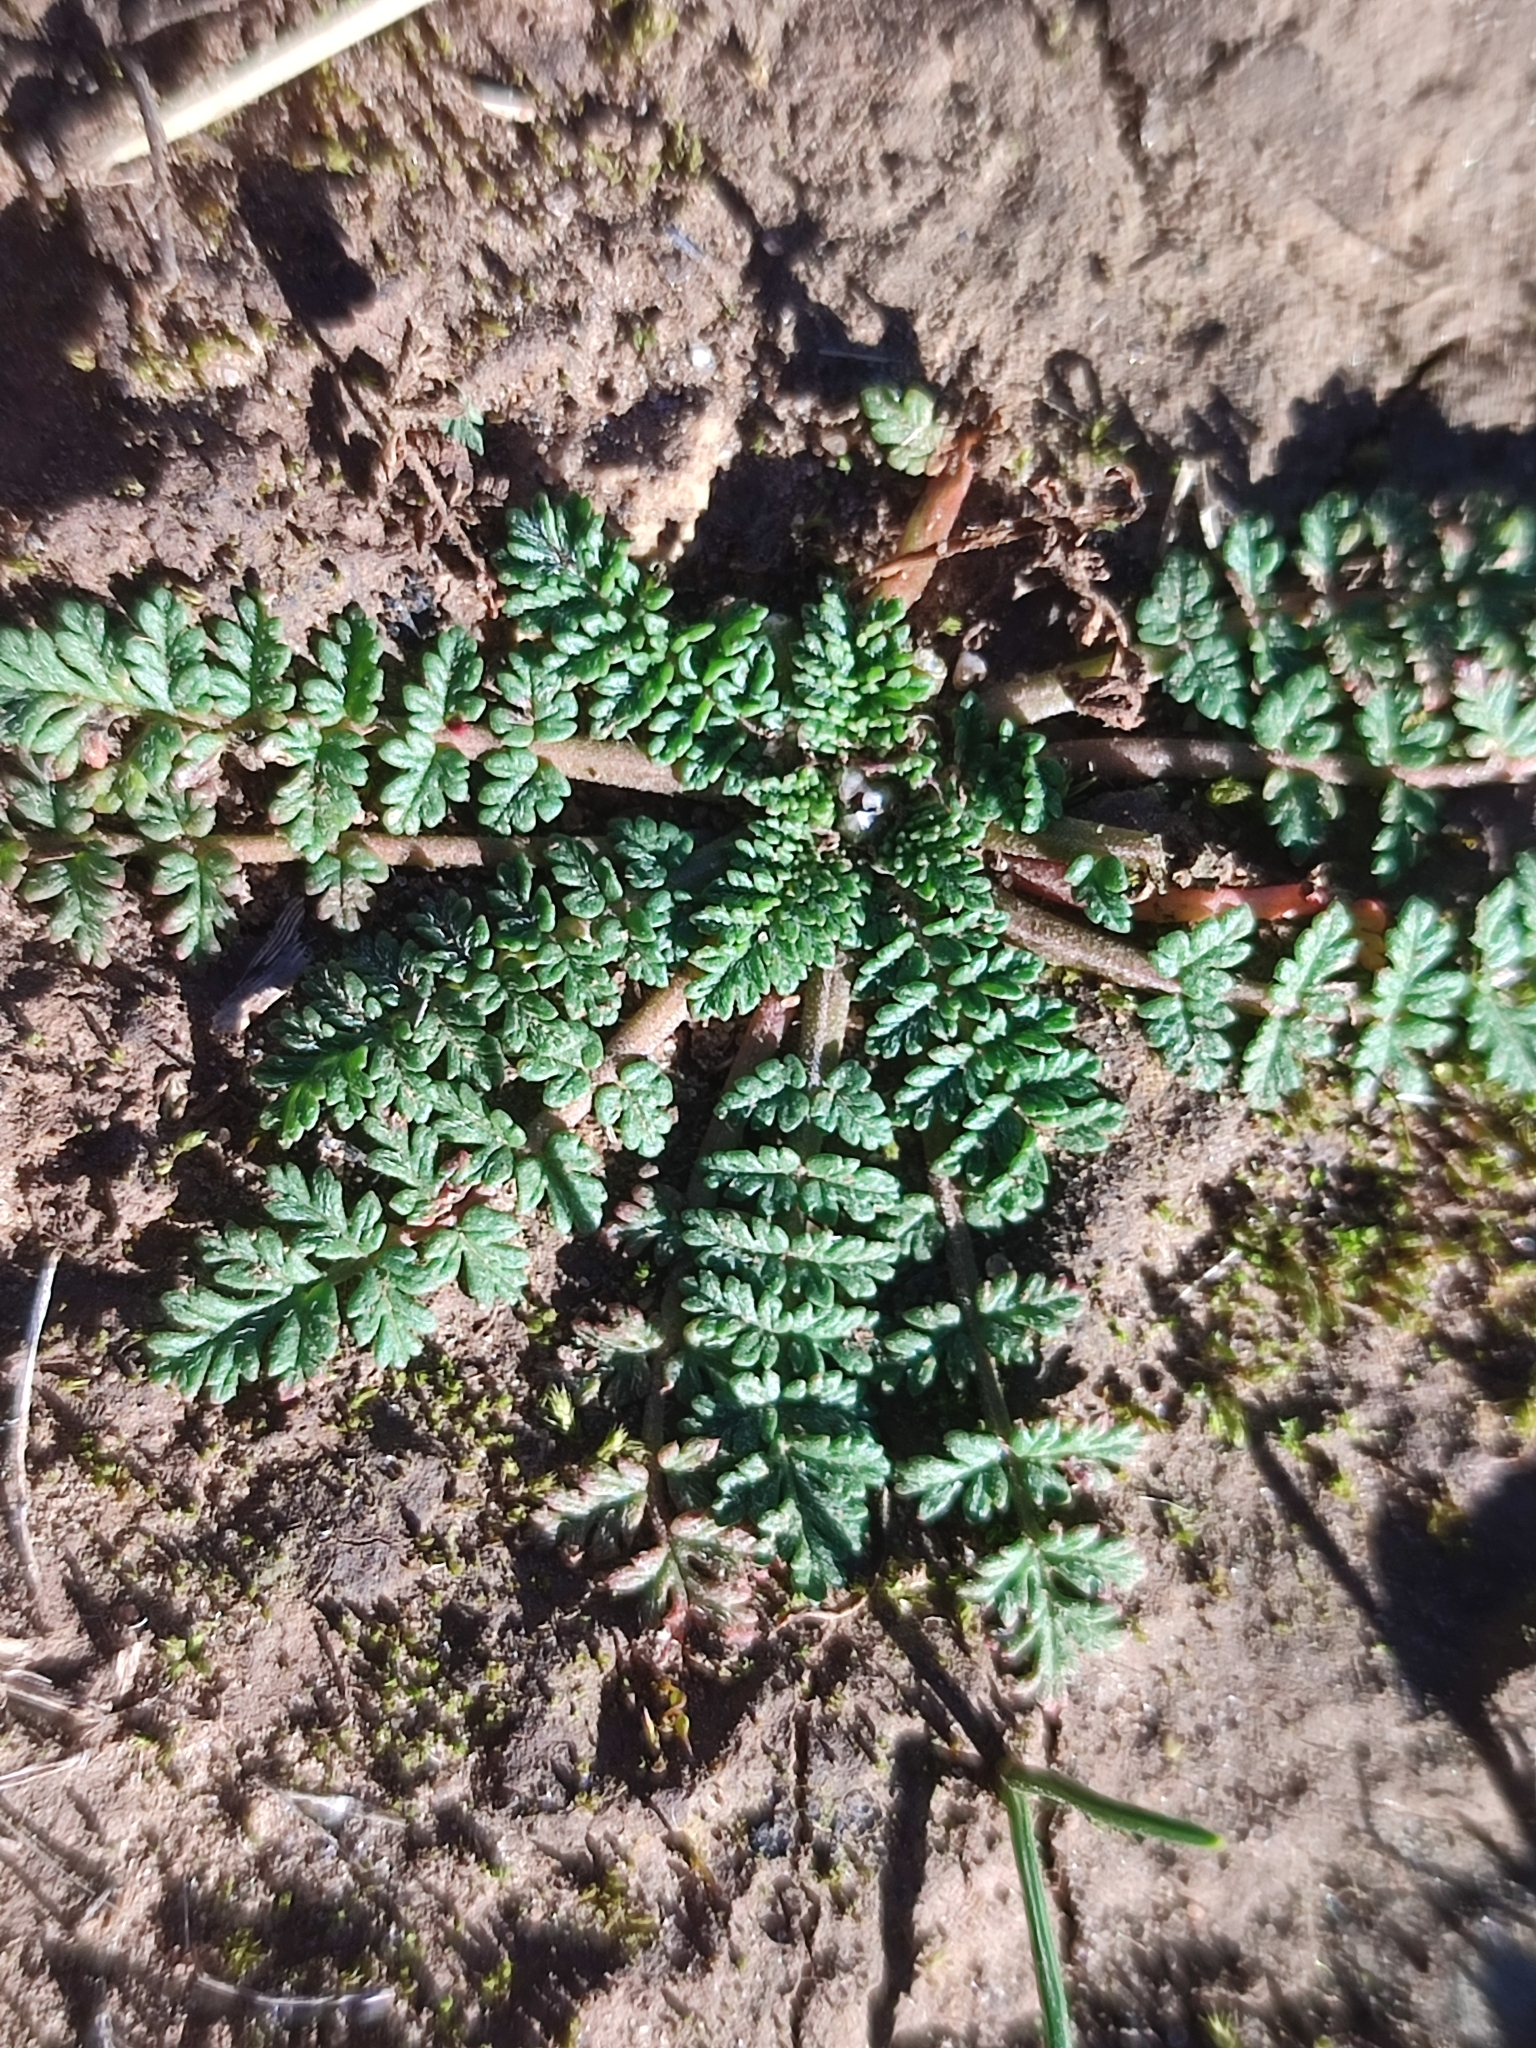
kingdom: Plantae
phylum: Tracheophyta
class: Magnoliopsida
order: Geraniales
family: Geraniaceae
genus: Erodium
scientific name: Erodium cicutarium
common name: Common stork's-bill
